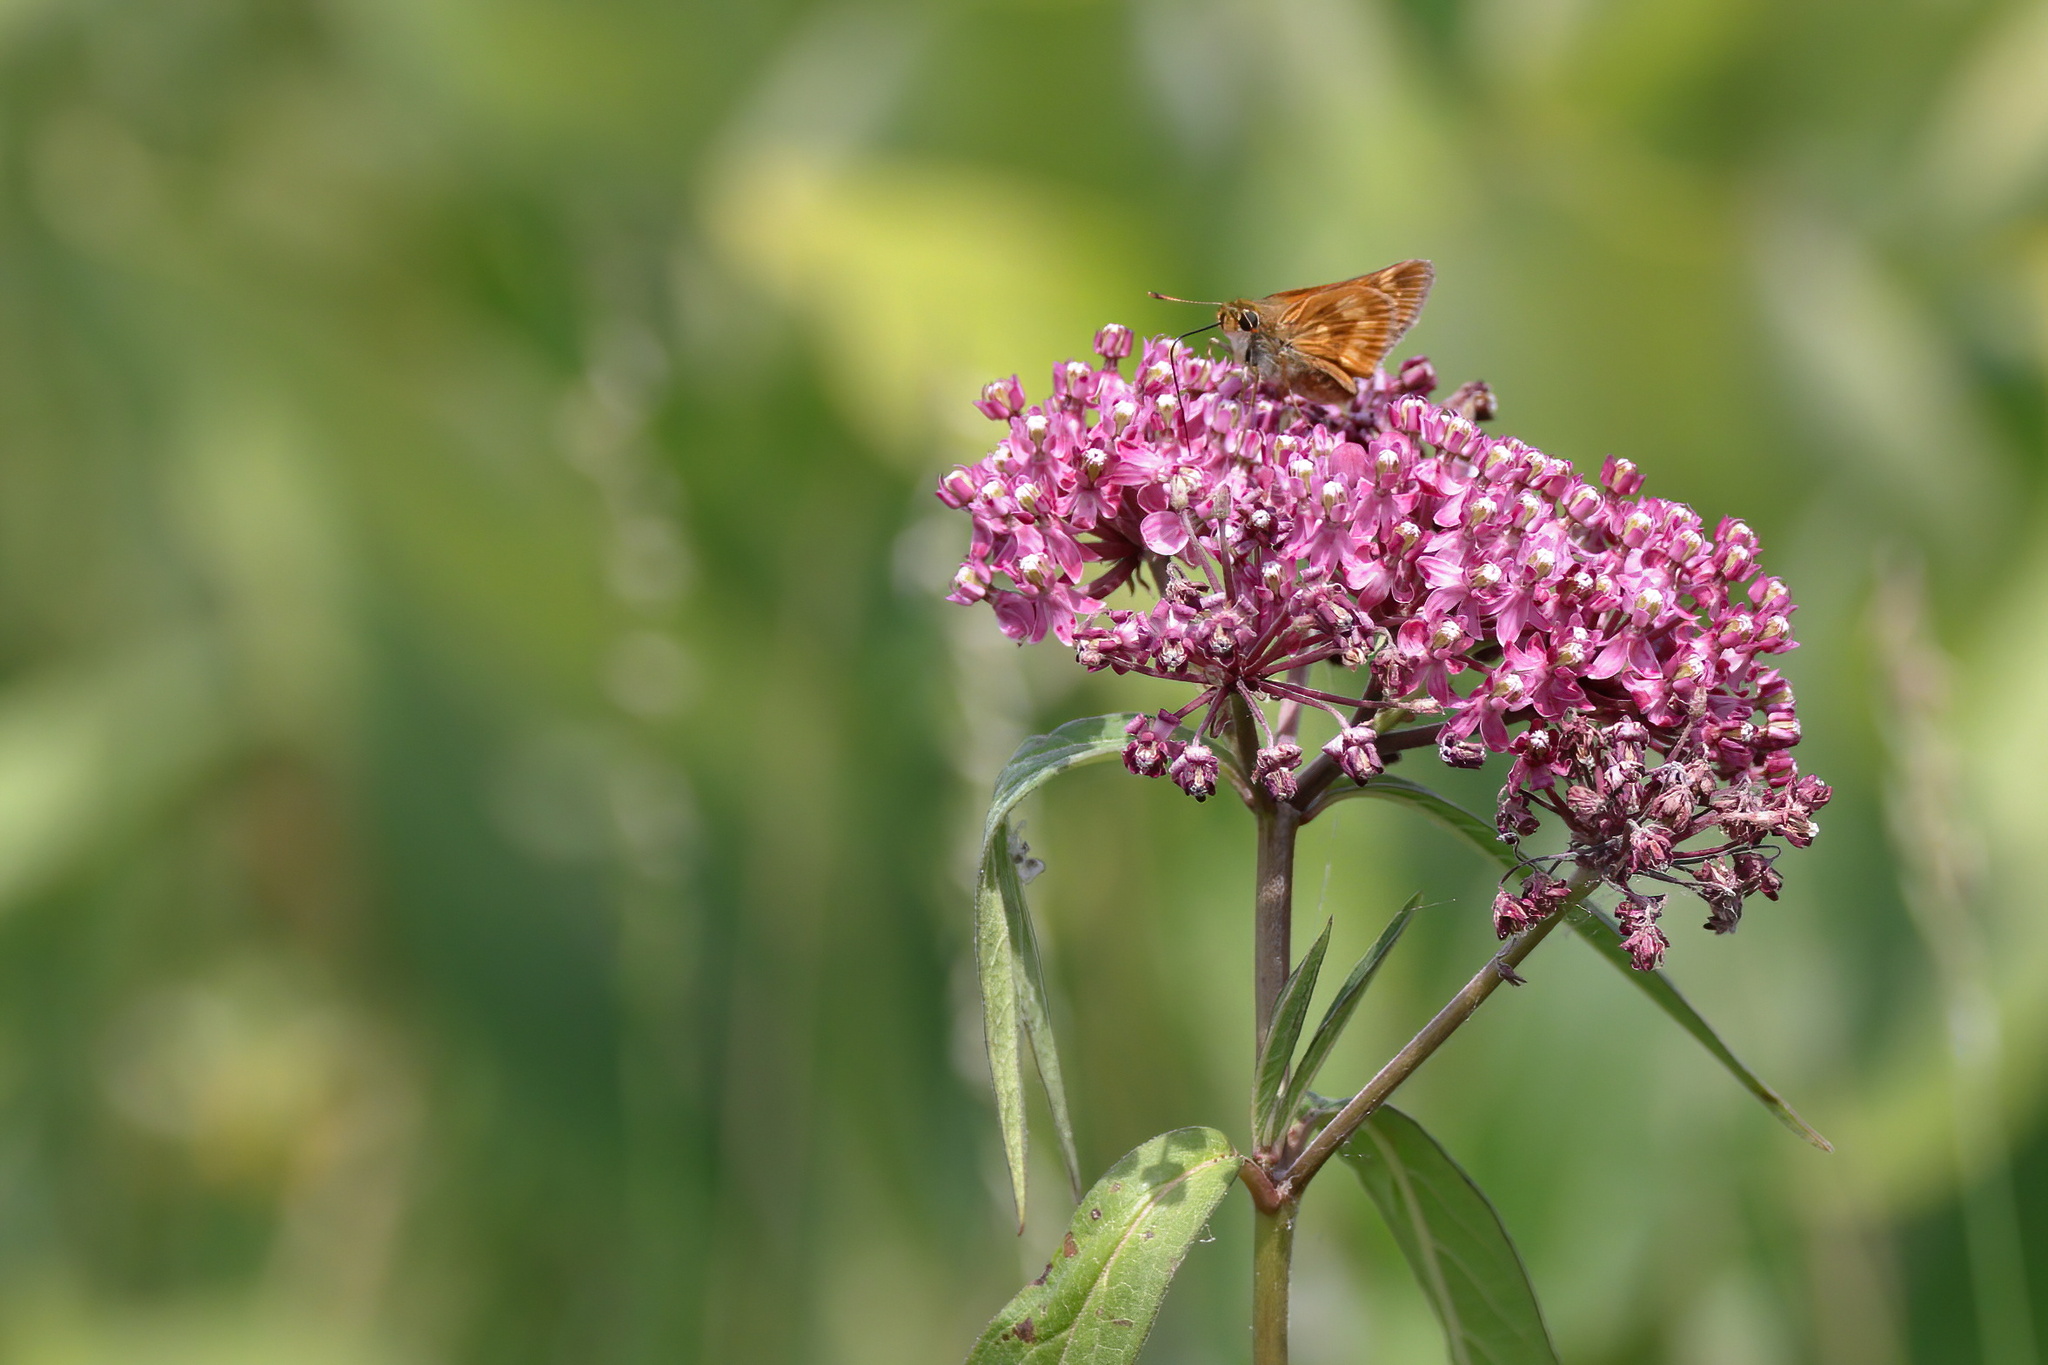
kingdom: Animalia
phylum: Arthropoda
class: Insecta
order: Lepidoptera
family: Hesperiidae
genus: Polites
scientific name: Polites mystic
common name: Long dash
